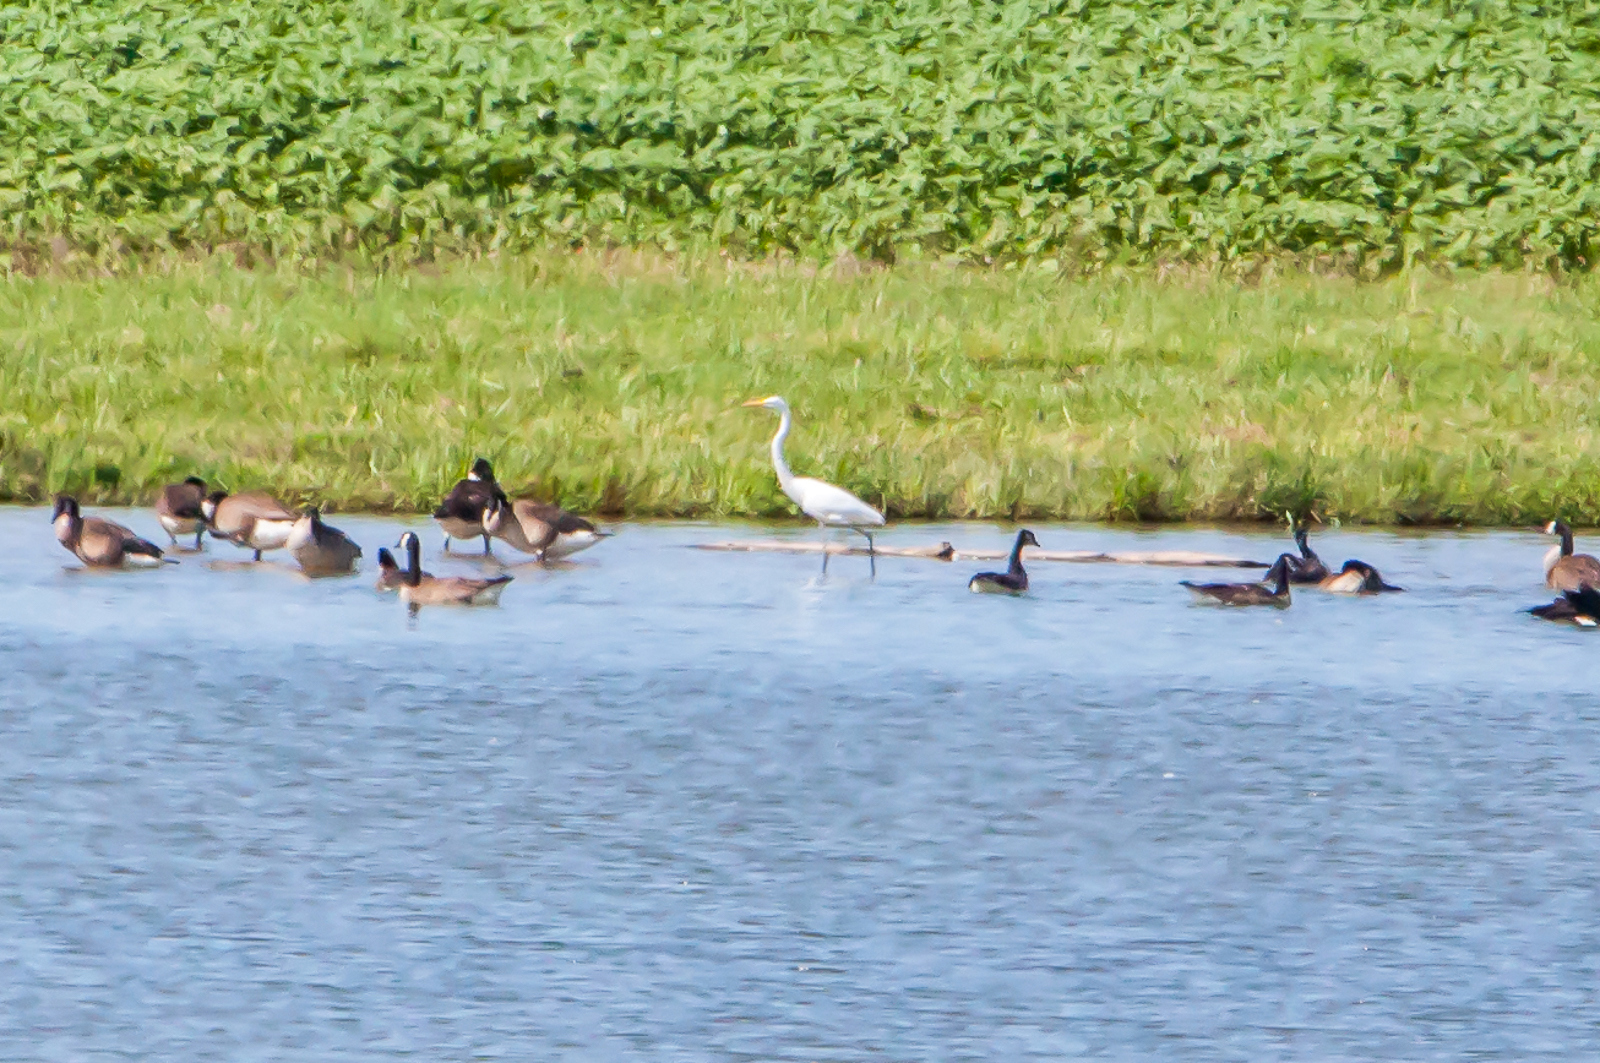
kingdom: Animalia
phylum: Chordata
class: Aves
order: Anseriformes
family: Anatidae
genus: Branta
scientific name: Branta canadensis
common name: Canada goose
